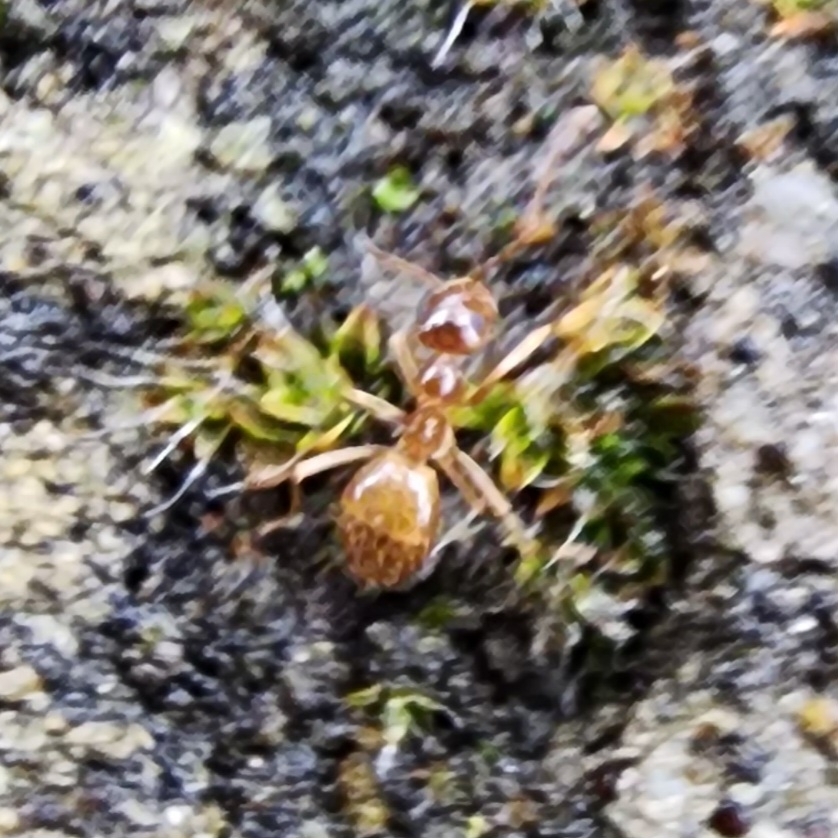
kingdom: Animalia
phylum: Arthropoda
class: Insecta
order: Hymenoptera
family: Formicidae
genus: Prenolepis
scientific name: Prenolepis imparis
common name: Small honey ant
